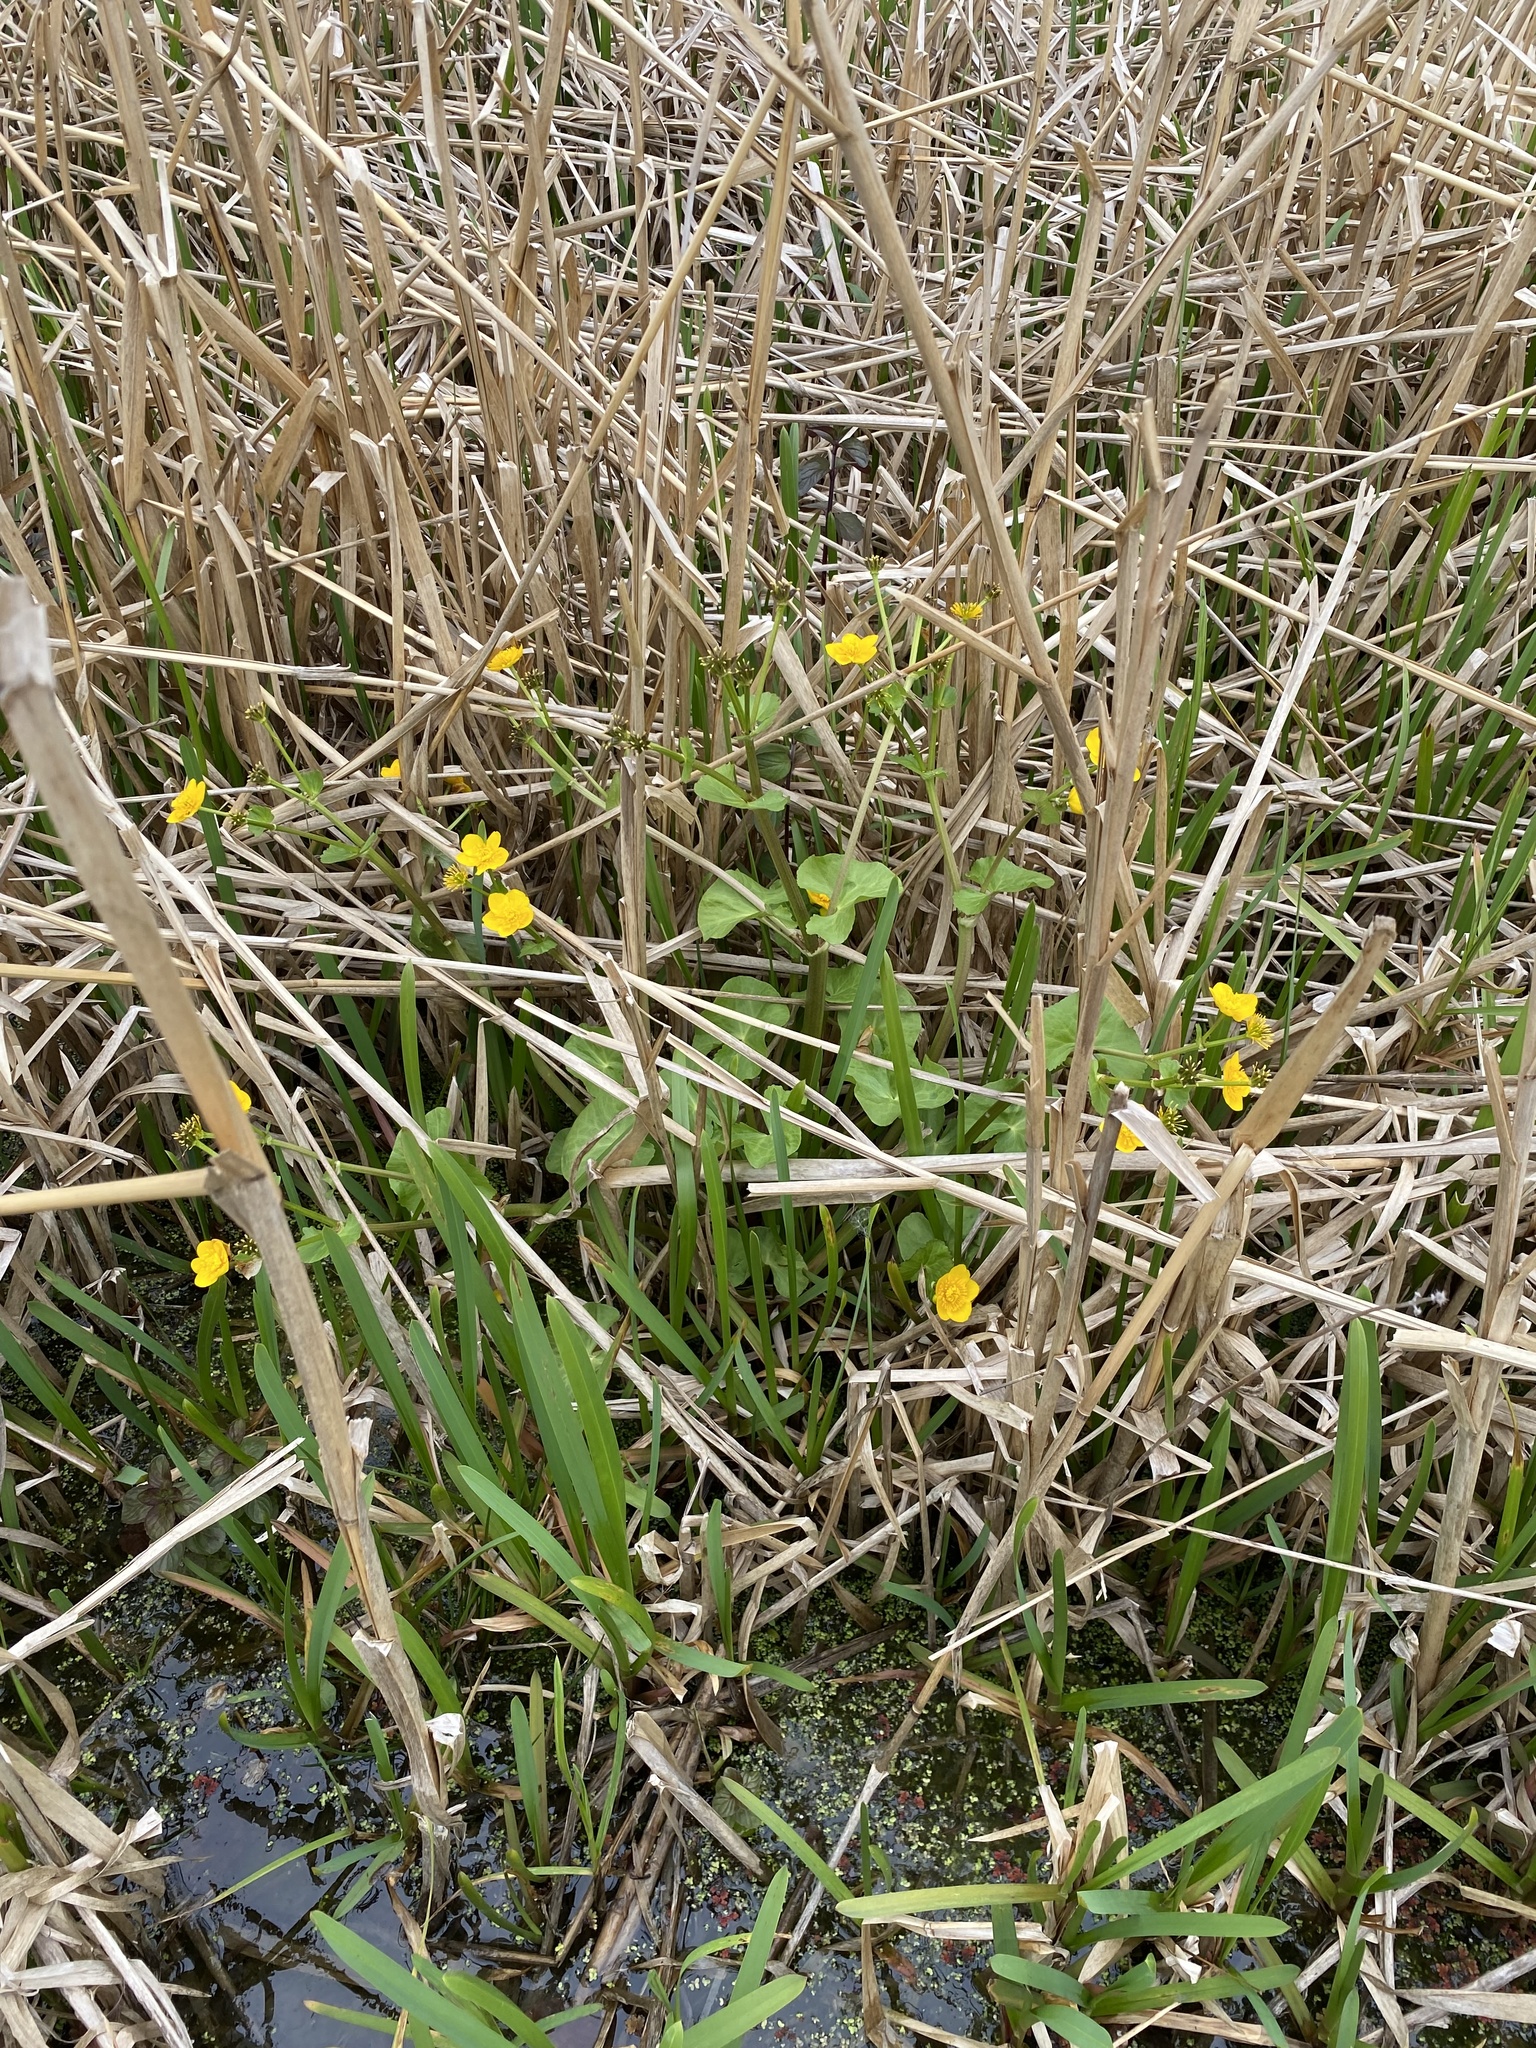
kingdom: Plantae
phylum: Tracheophyta
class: Magnoliopsida
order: Ranunculales
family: Ranunculaceae
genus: Caltha
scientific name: Caltha palustris
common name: Marsh marigold
